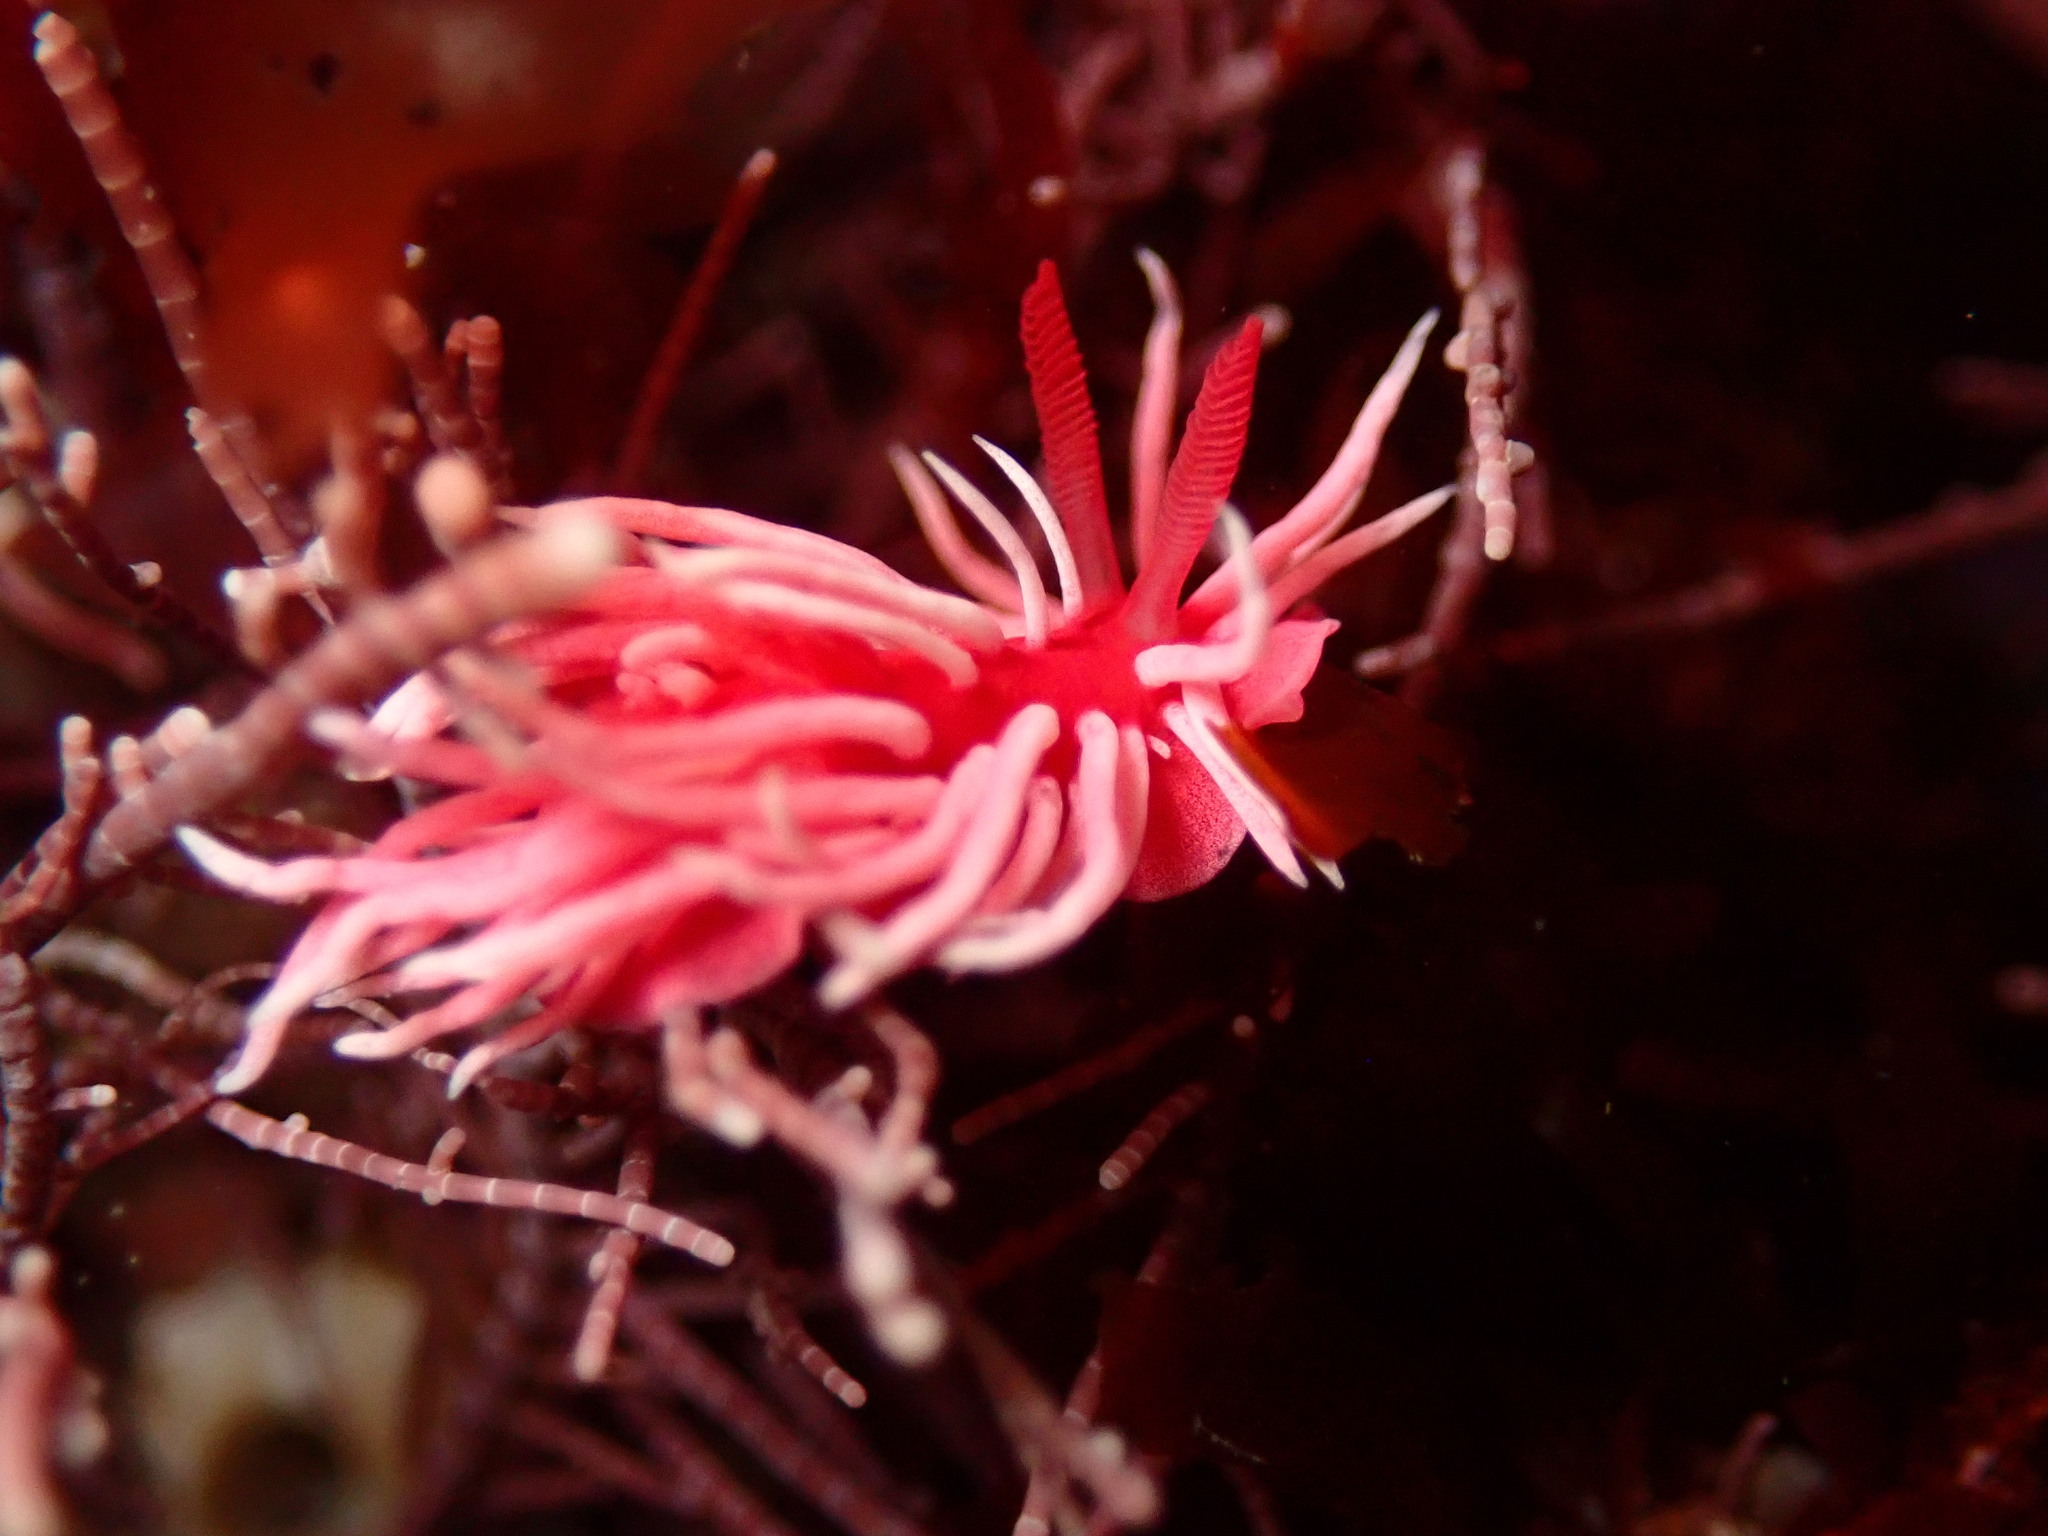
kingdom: Animalia
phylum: Mollusca
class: Gastropoda
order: Nudibranchia
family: Goniodorididae
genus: Okenia
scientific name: Okenia
